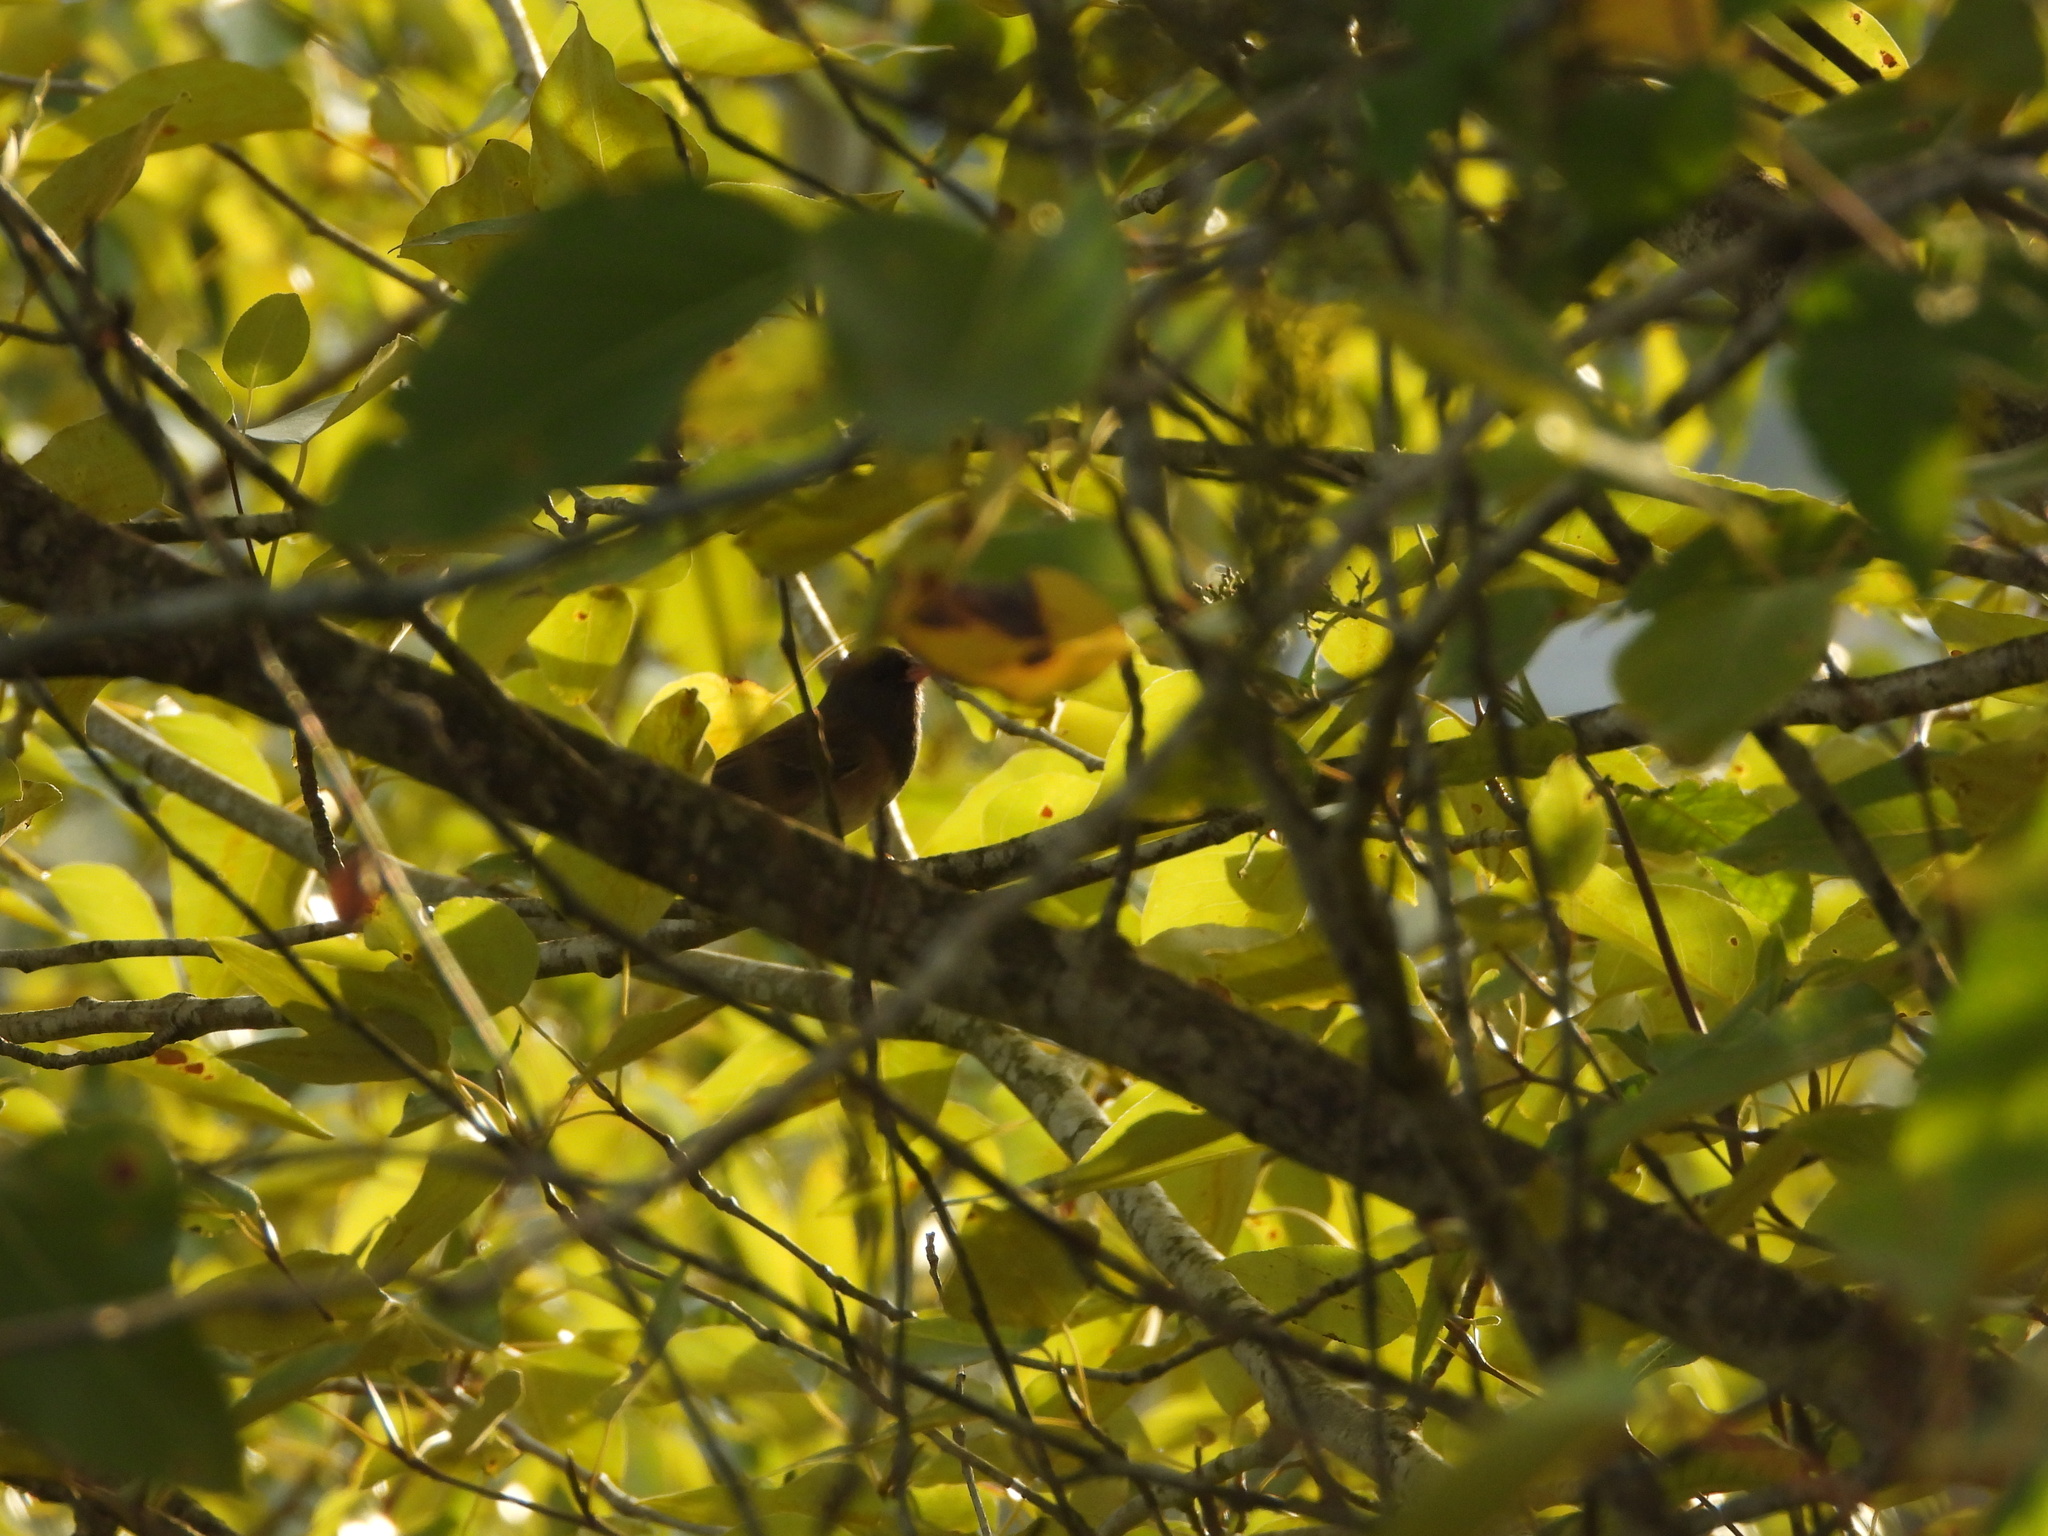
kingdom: Animalia
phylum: Chordata
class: Aves
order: Passeriformes
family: Passerellidae
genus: Junco
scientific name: Junco hyemalis
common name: Dark-eyed junco
